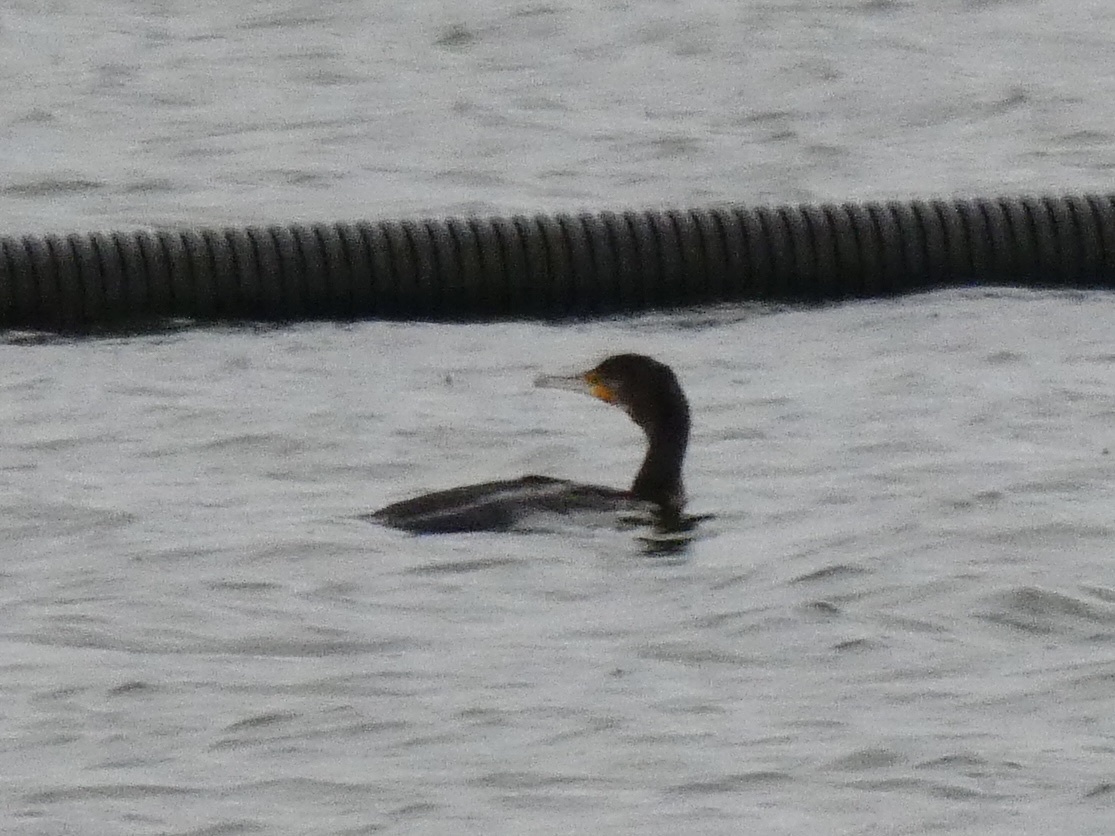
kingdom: Animalia
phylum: Chordata
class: Aves
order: Suliformes
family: Phalacrocoracidae
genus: Phalacrocorax
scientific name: Phalacrocorax carbo
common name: Great cormorant
